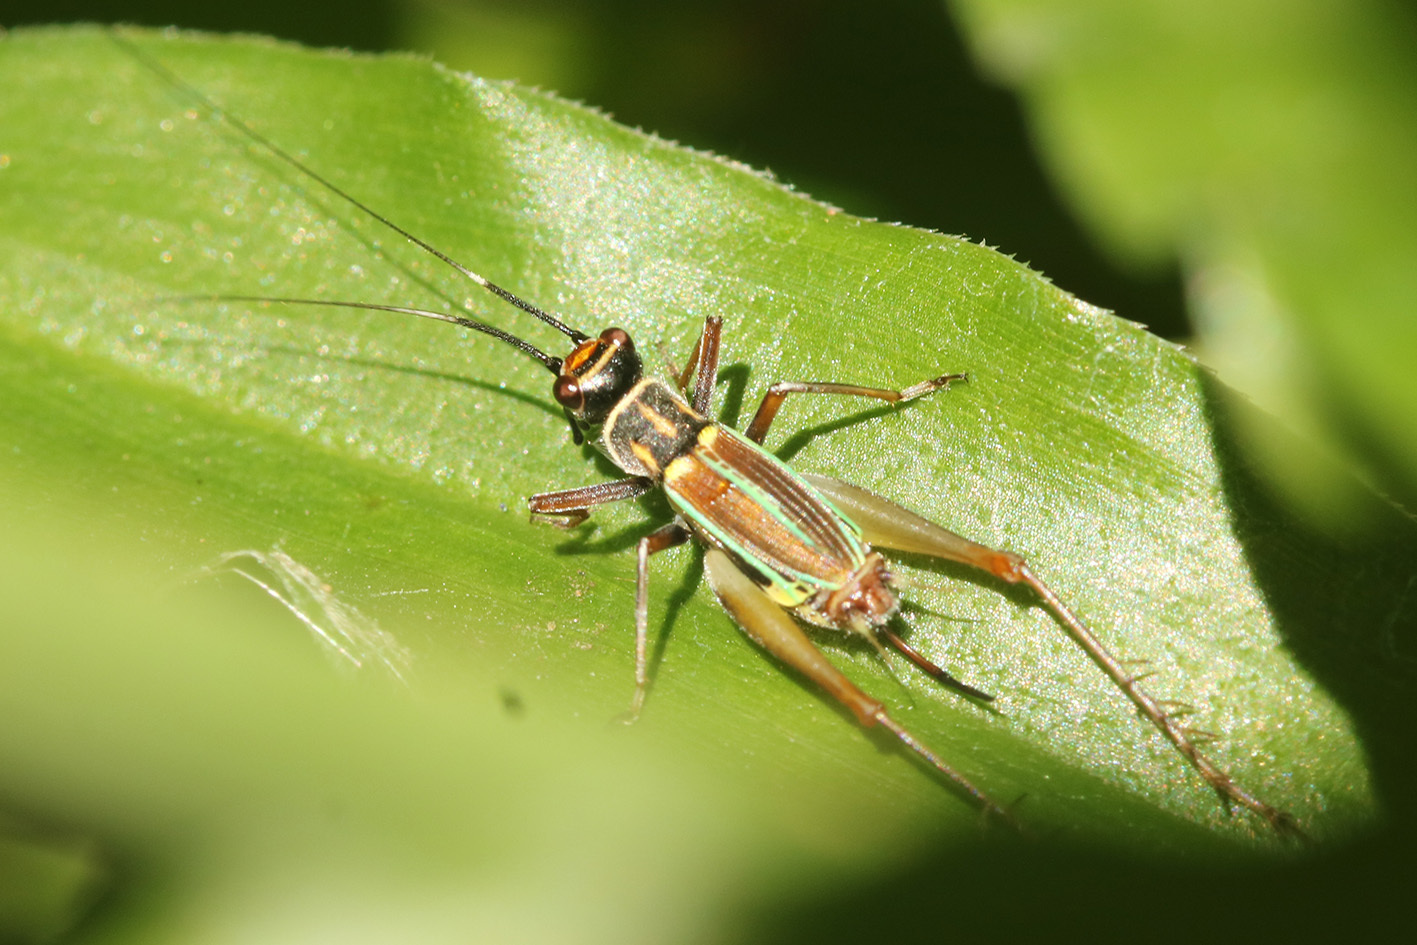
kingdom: Animalia
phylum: Arthropoda
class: Insecta
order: Orthoptera
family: Trigonidiidae
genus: Phylloscyrtus
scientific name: Phylloscyrtus amoenus
